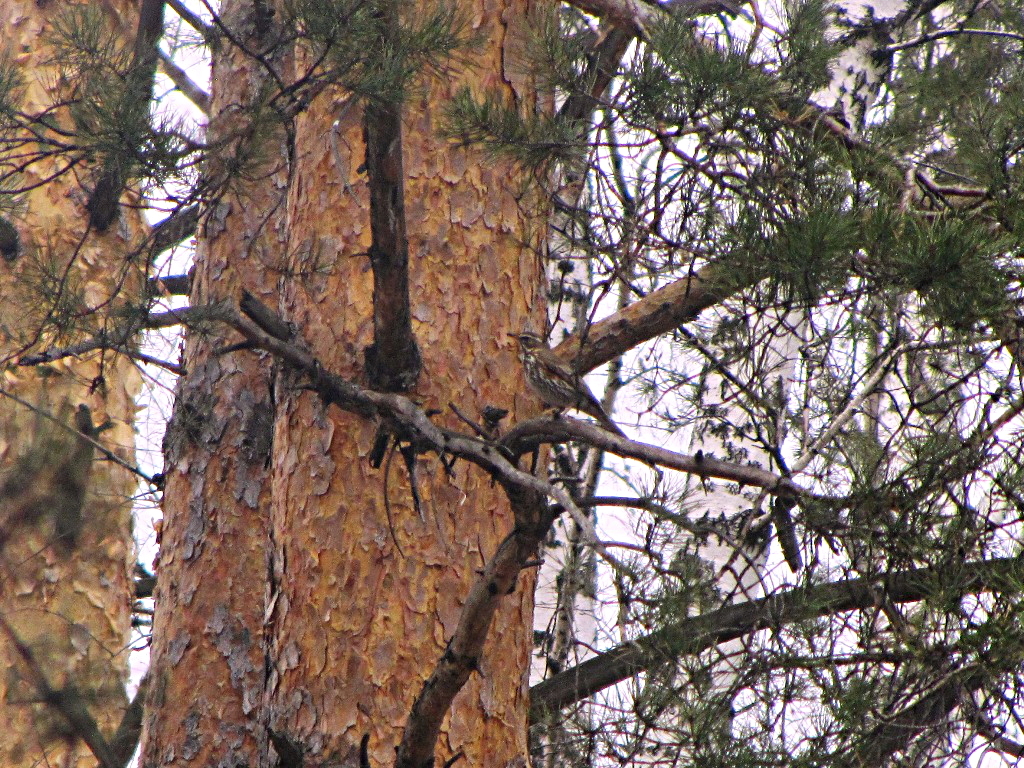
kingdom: Animalia
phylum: Chordata
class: Aves
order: Passeriformes
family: Turdidae
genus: Turdus
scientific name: Turdus iliacus
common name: Redwing
